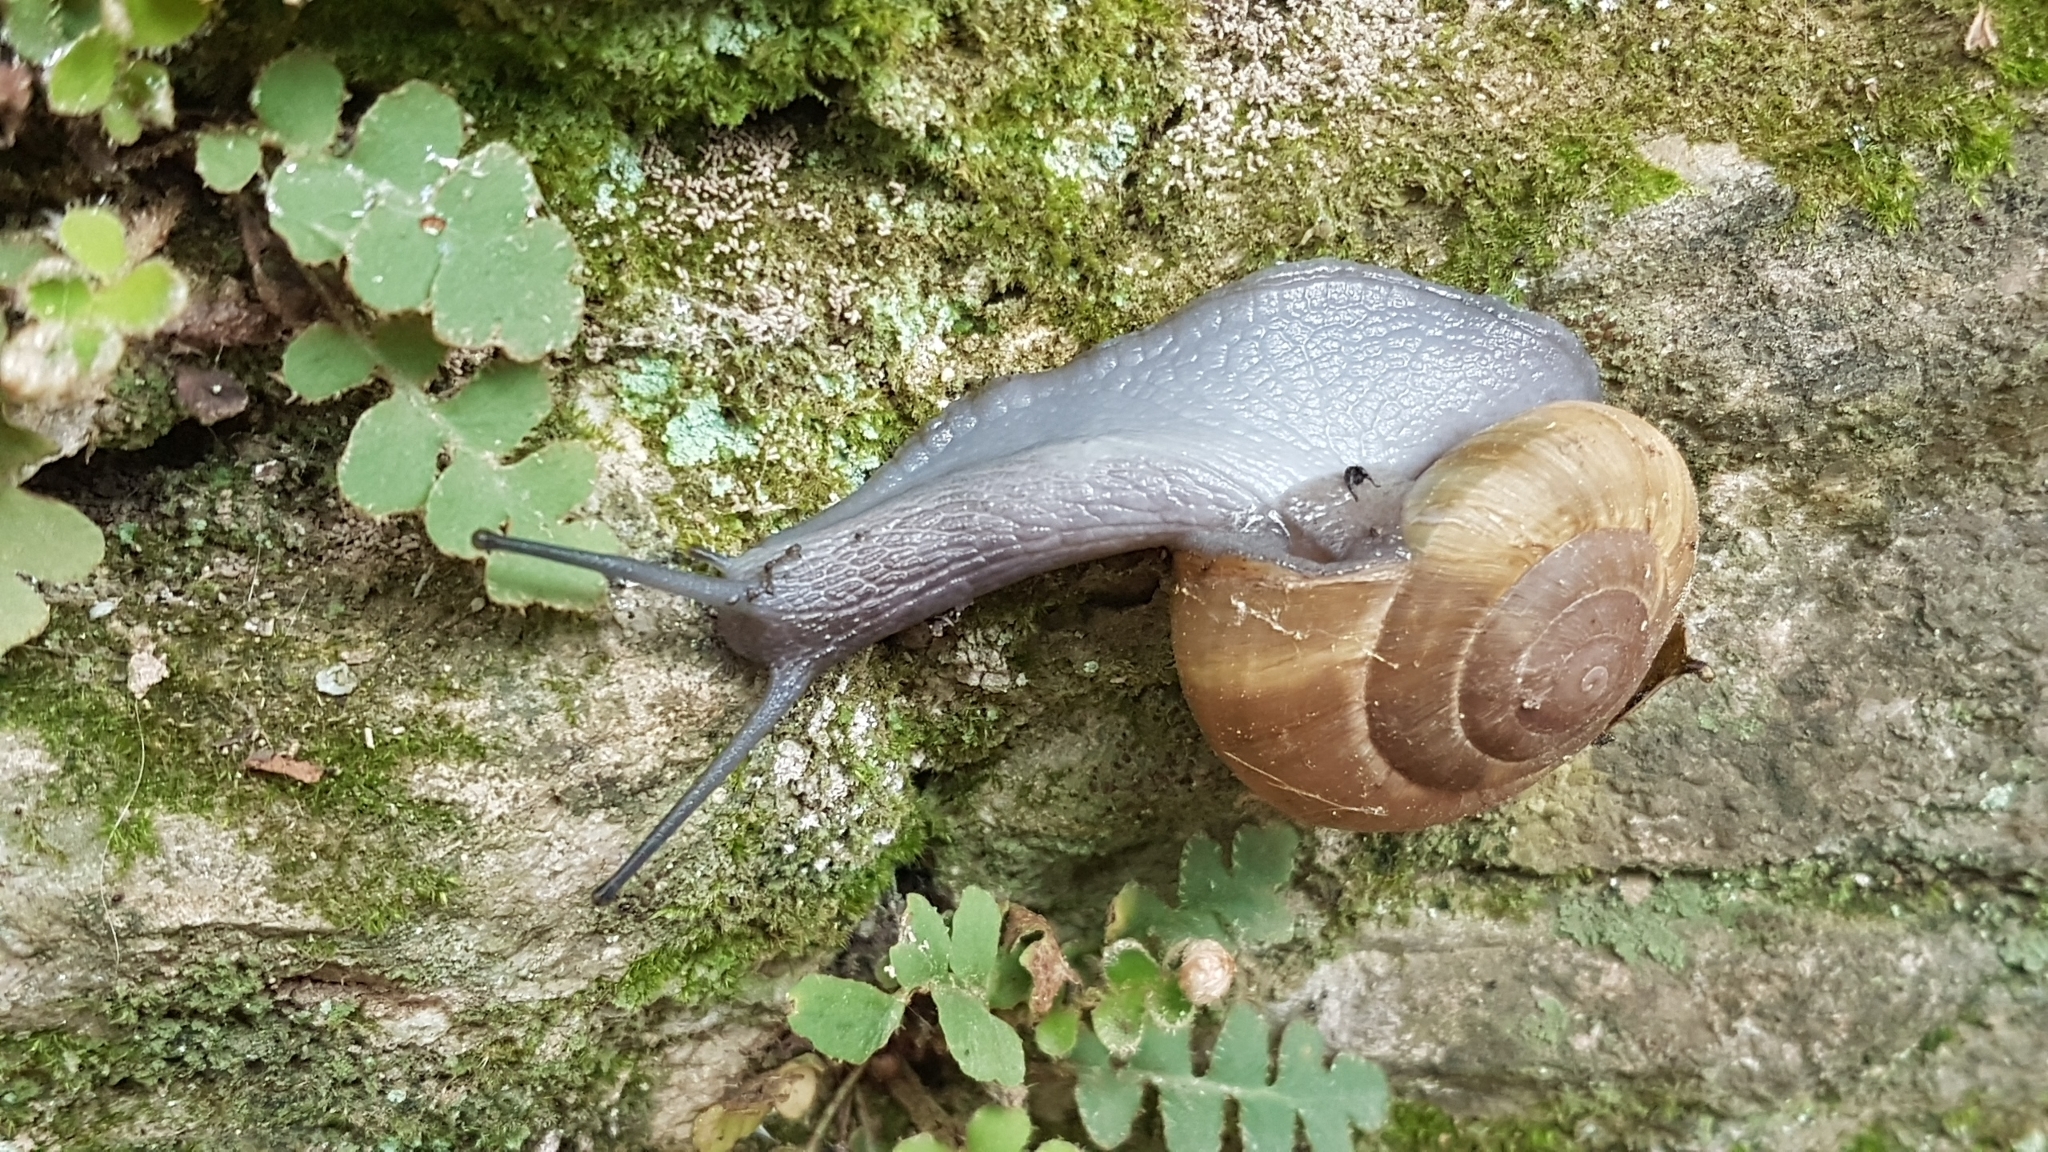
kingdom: Animalia
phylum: Mollusca
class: Gastropoda
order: Stylommatophora
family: Zonitidae
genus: Zonites
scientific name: Zonites algirus
